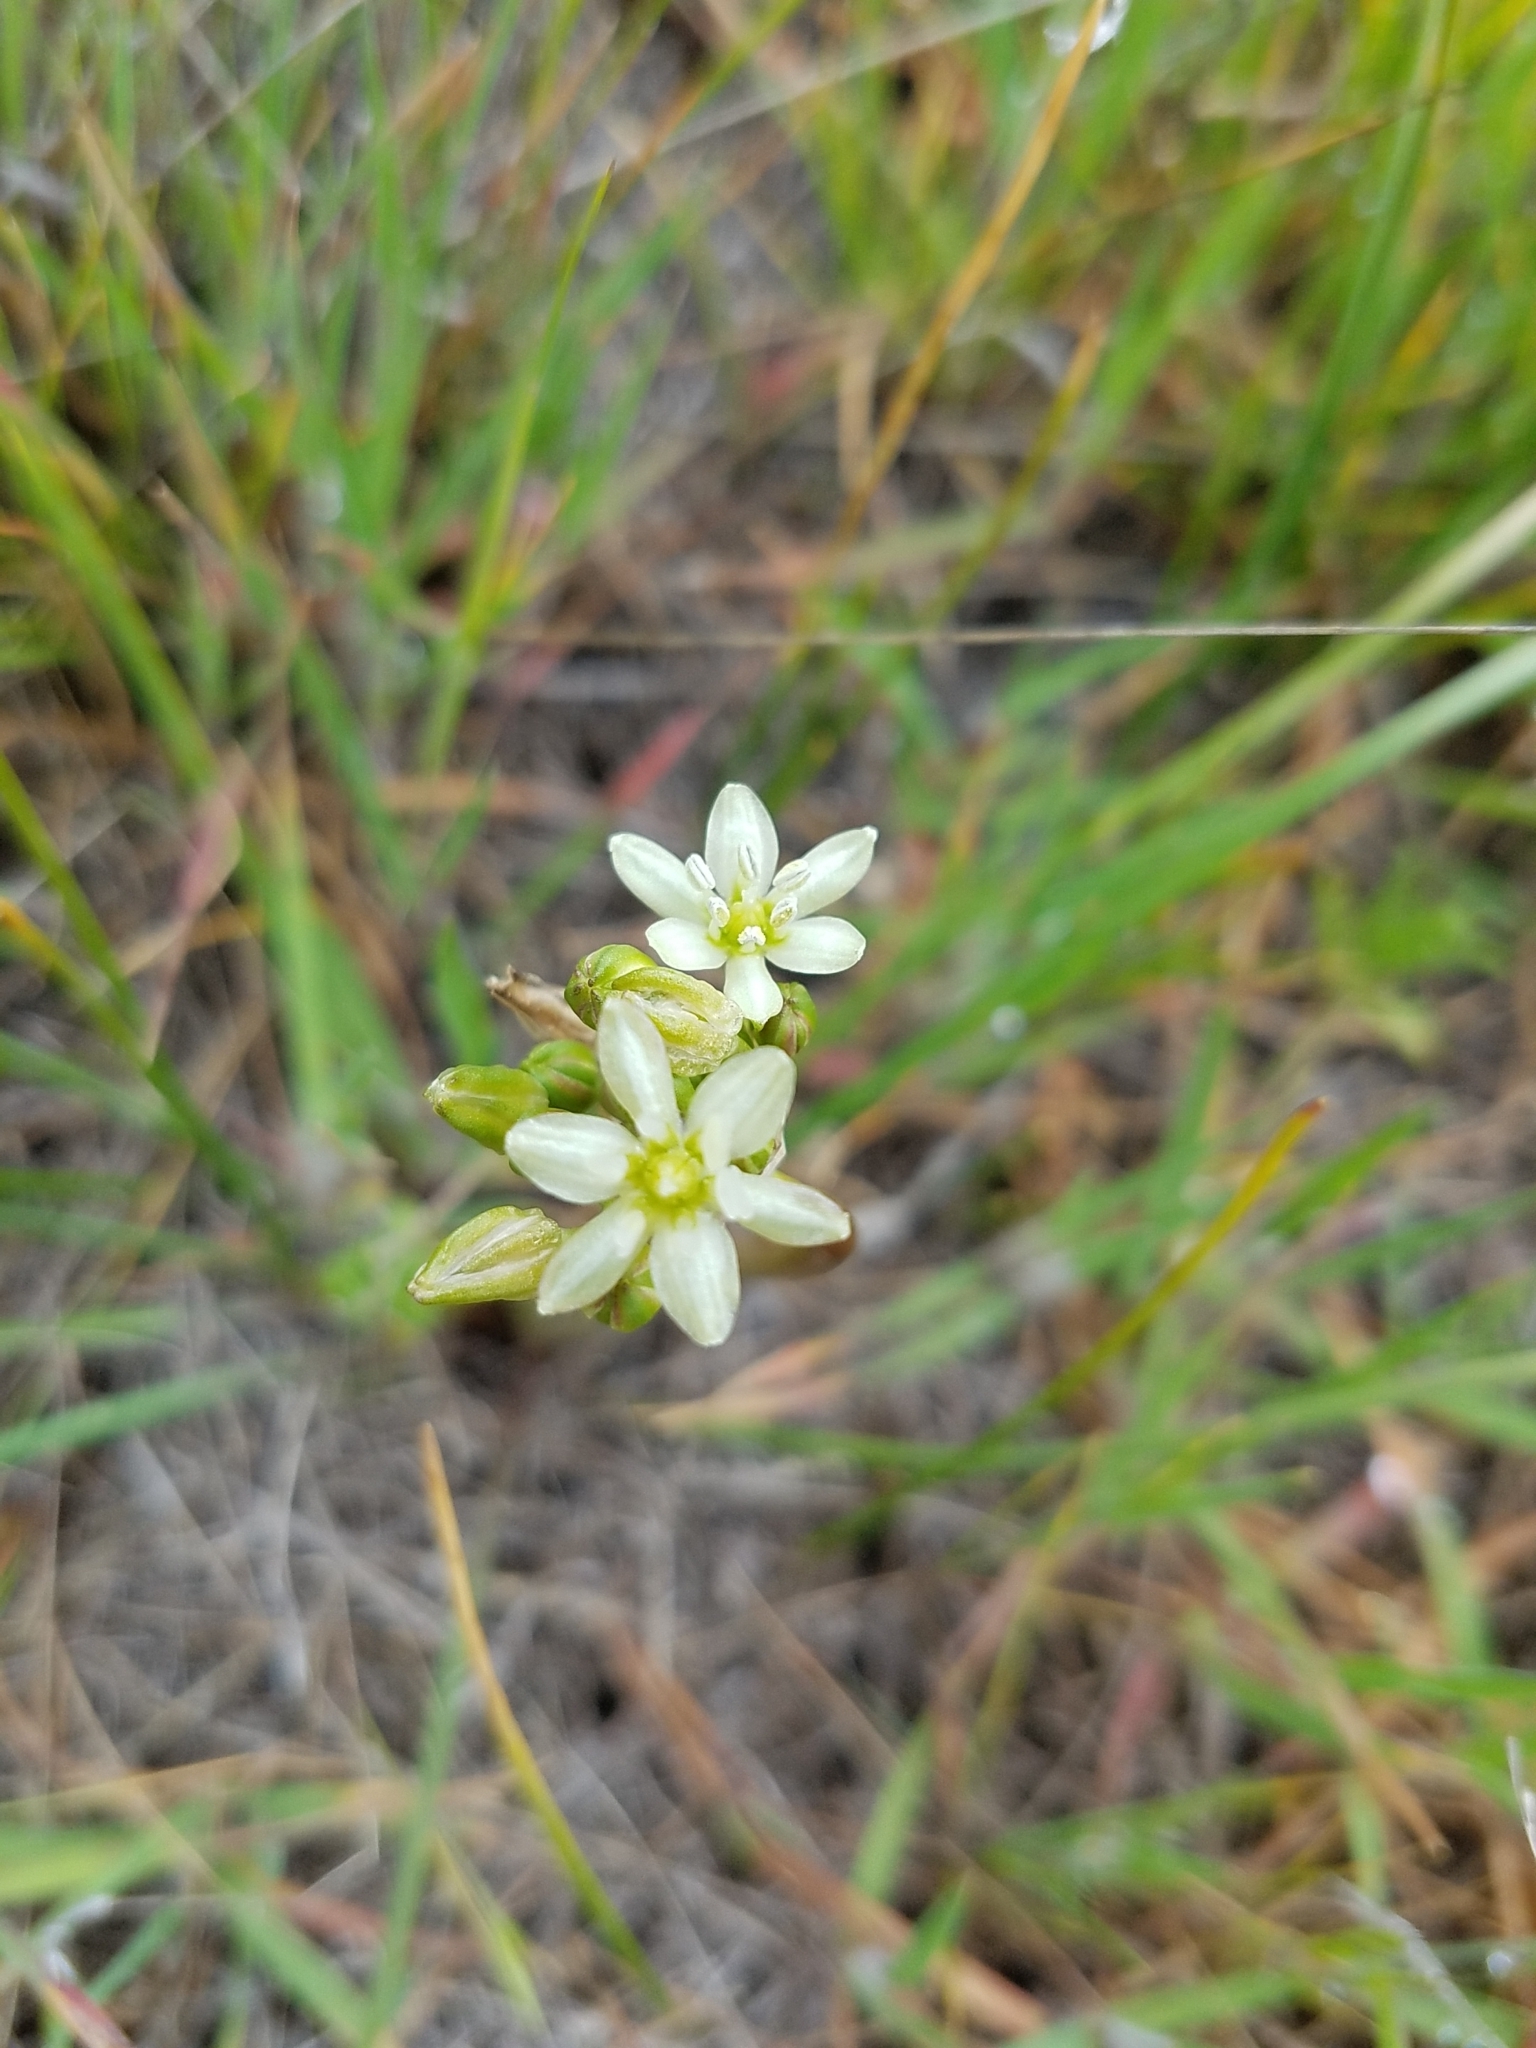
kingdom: Plantae
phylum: Tracheophyta
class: Liliopsida
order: Asparagales
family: Asparagaceae
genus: Muilla
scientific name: Muilla maritima
